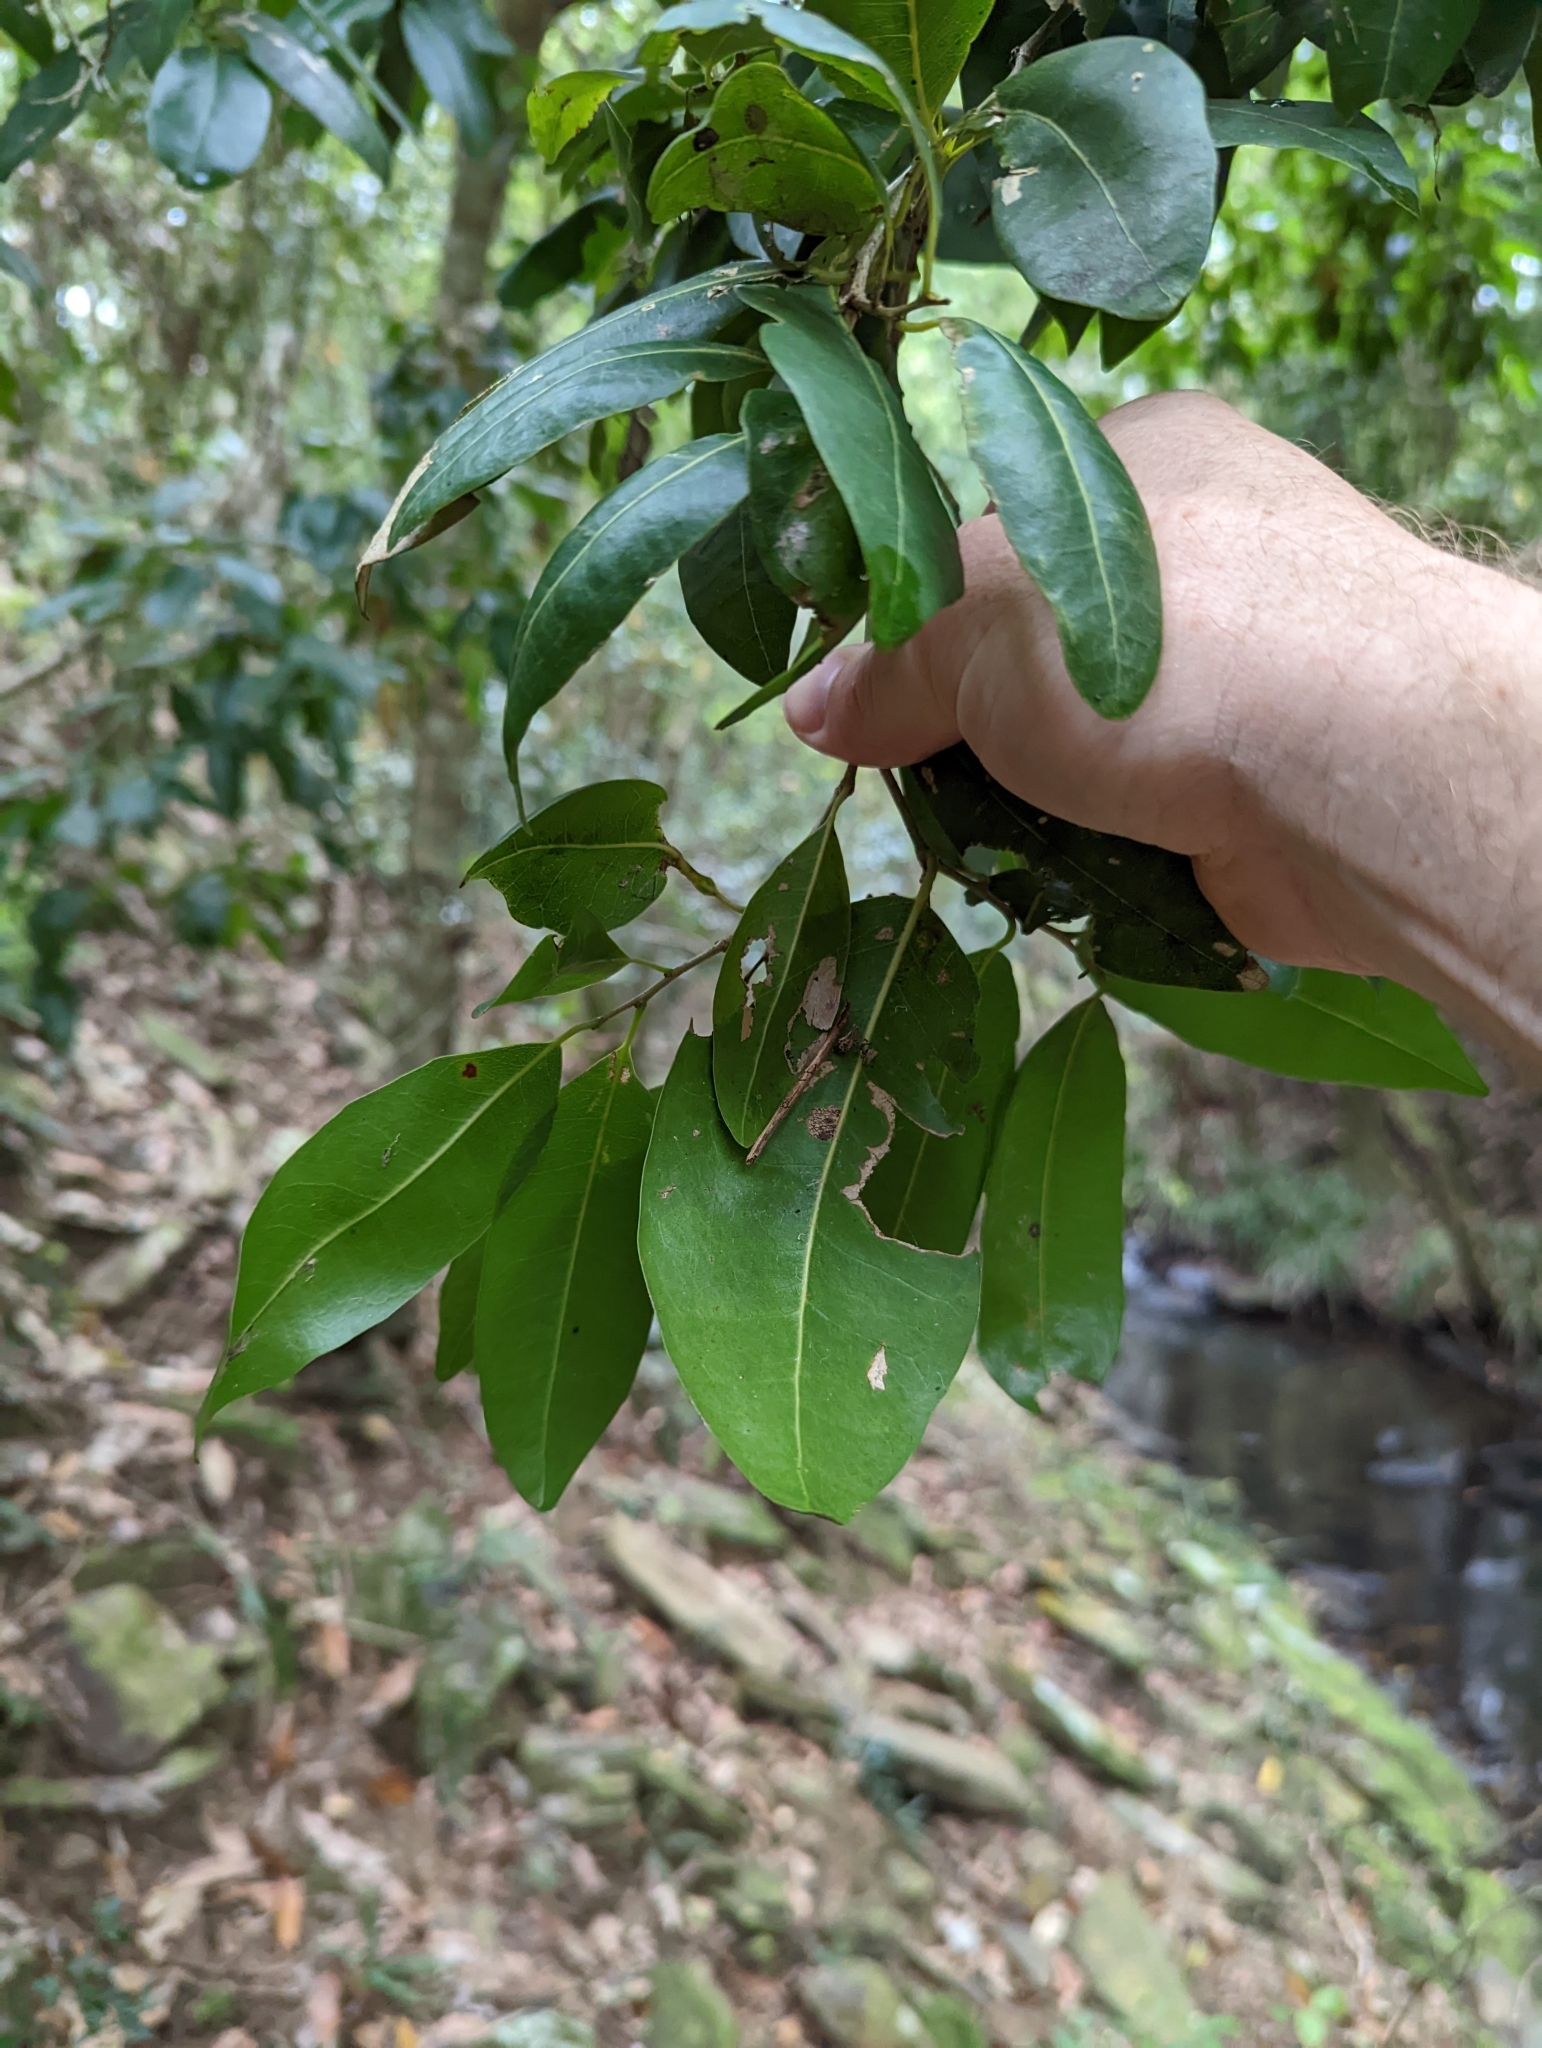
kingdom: Plantae
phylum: Tracheophyta
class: Magnoliopsida
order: Malpighiales
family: Putranjivaceae
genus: Drypetes
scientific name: Drypetes deplanchei
